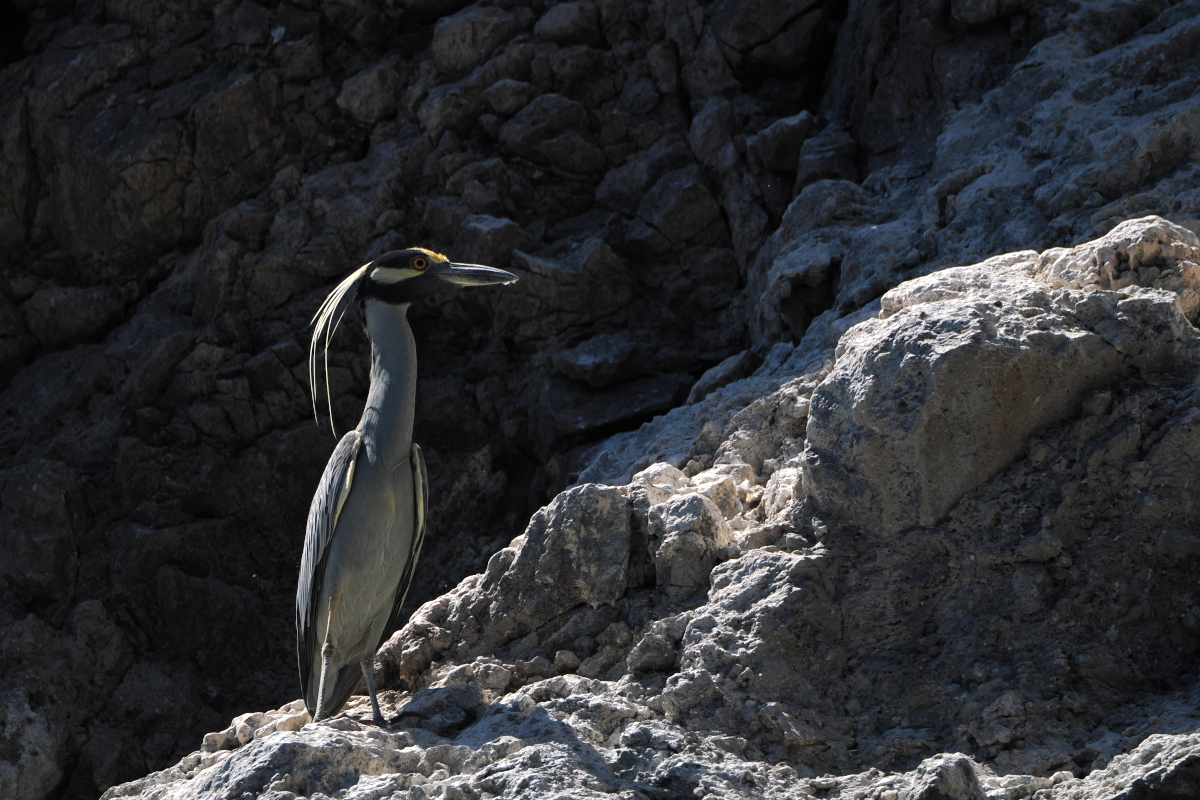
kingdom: Animalia
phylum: Chordata
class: Aves
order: Pelecaniformes
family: Ardeidae
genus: Nyctanassa
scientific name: Nyctanassa violacea
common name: Yellow-crowned night heron
